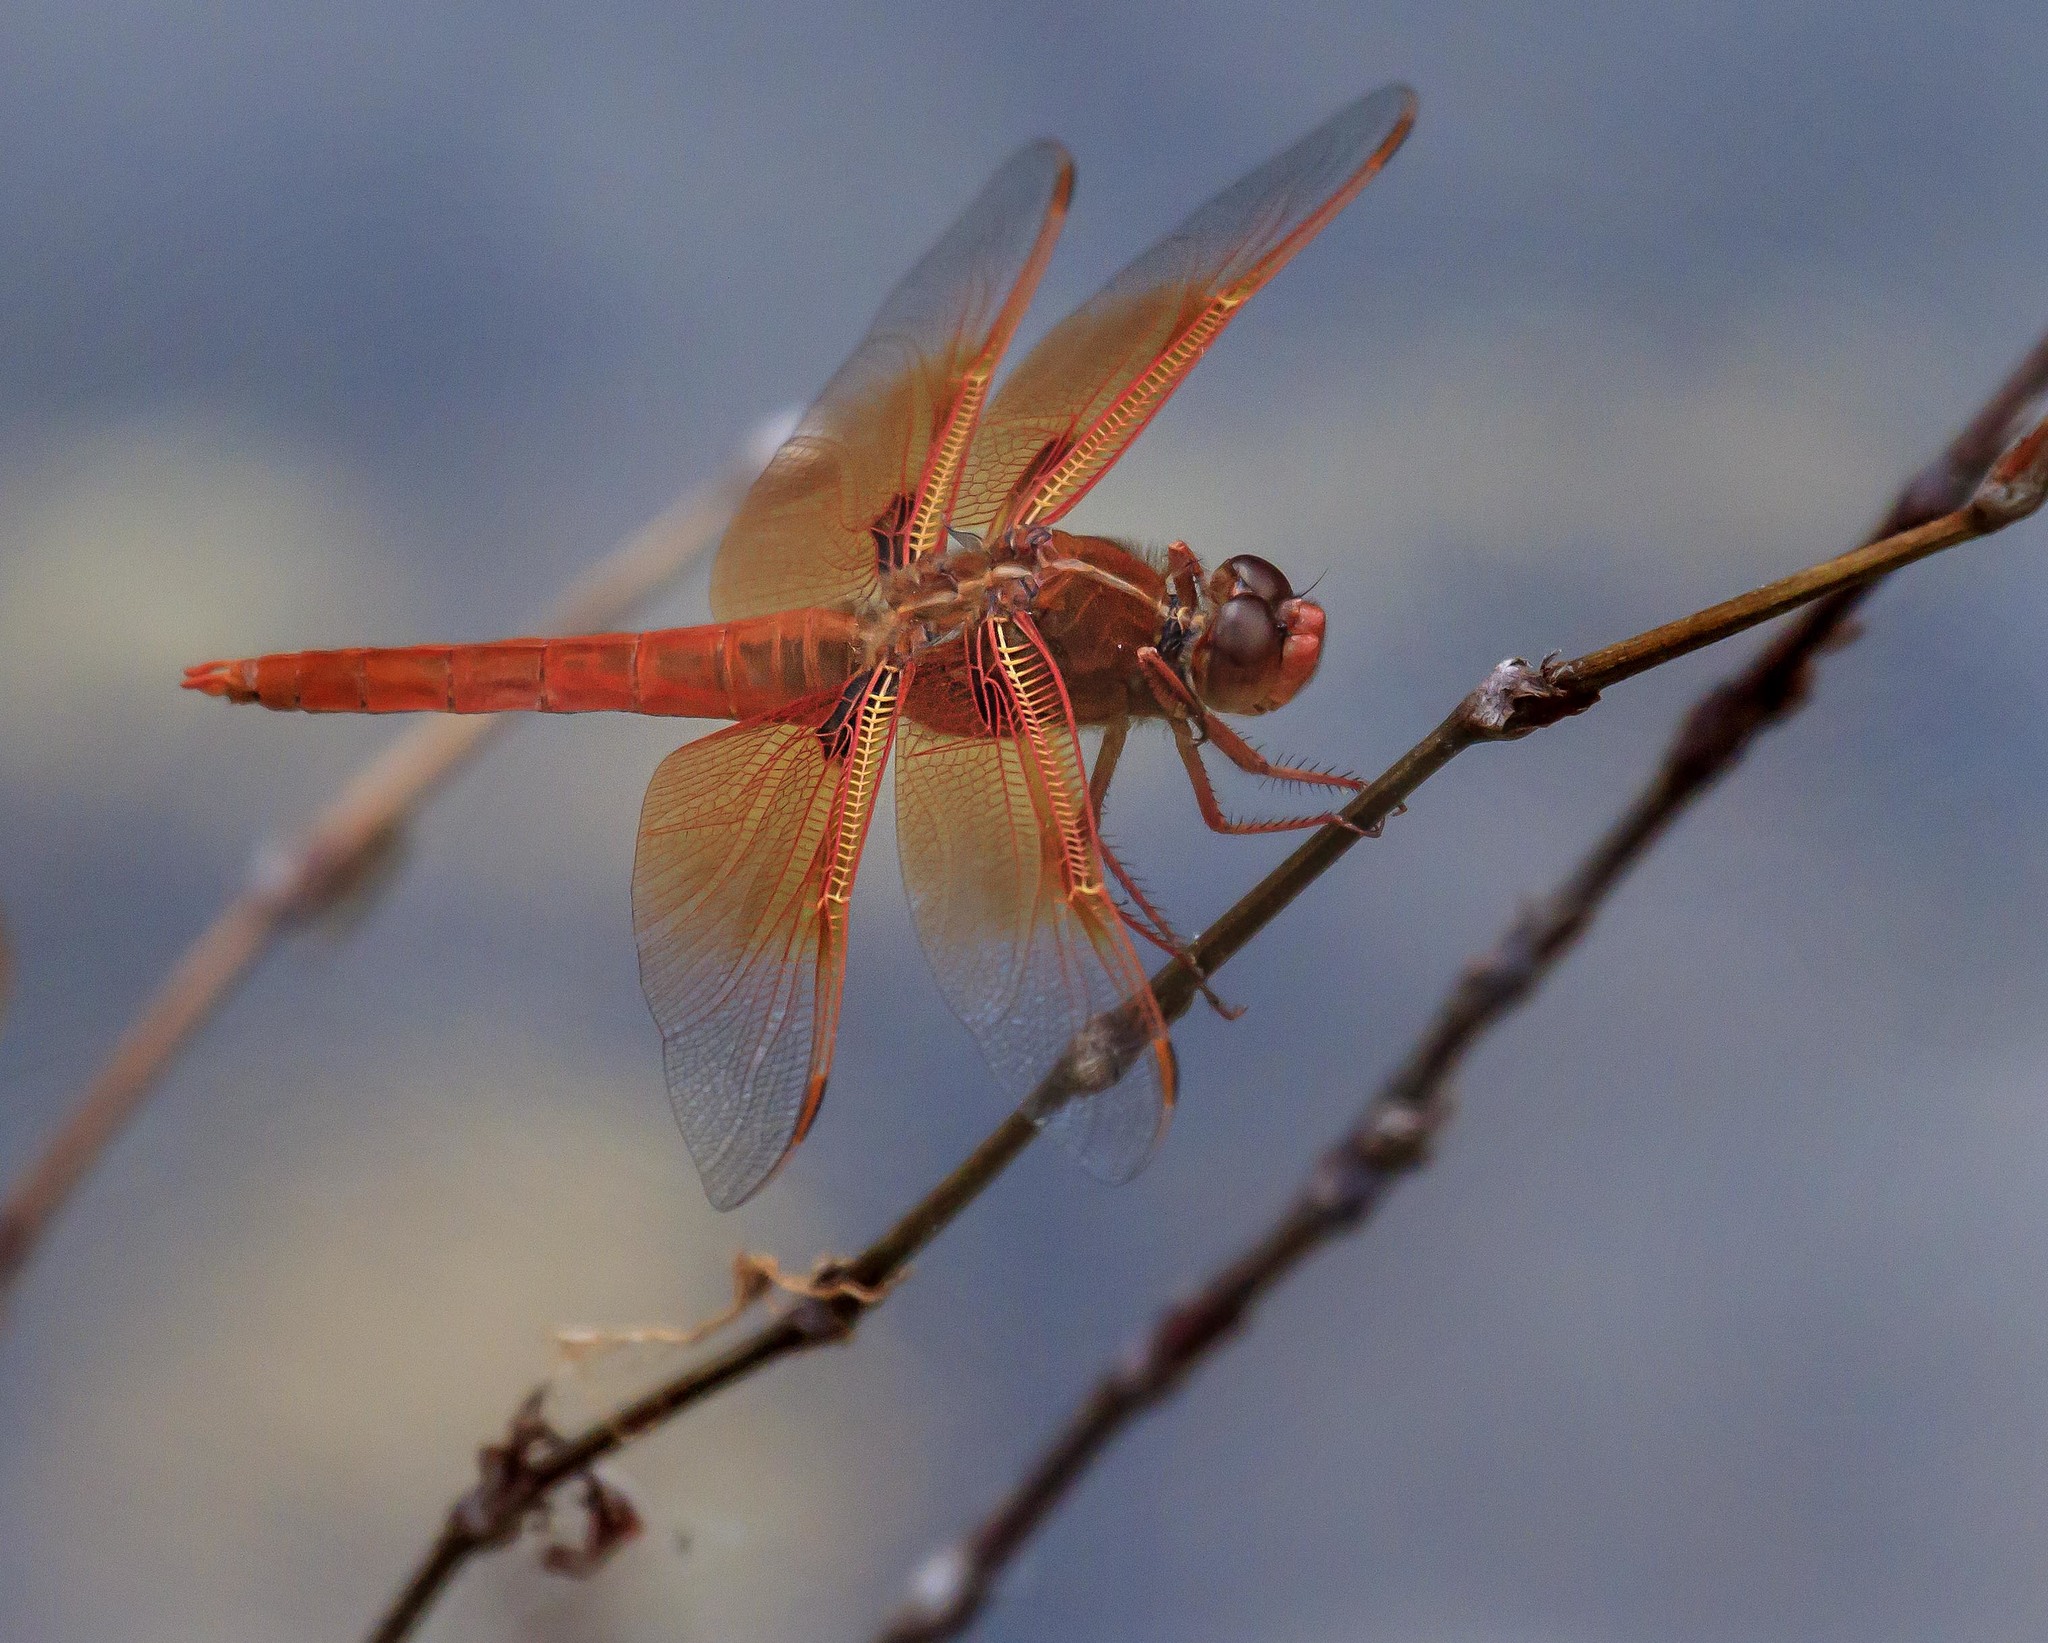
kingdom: Animalia
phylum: Arthropoda
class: Insecta
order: Odonata
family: Libellulidae
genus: Libellula
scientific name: Libellula saturata
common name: Flame skimmer
